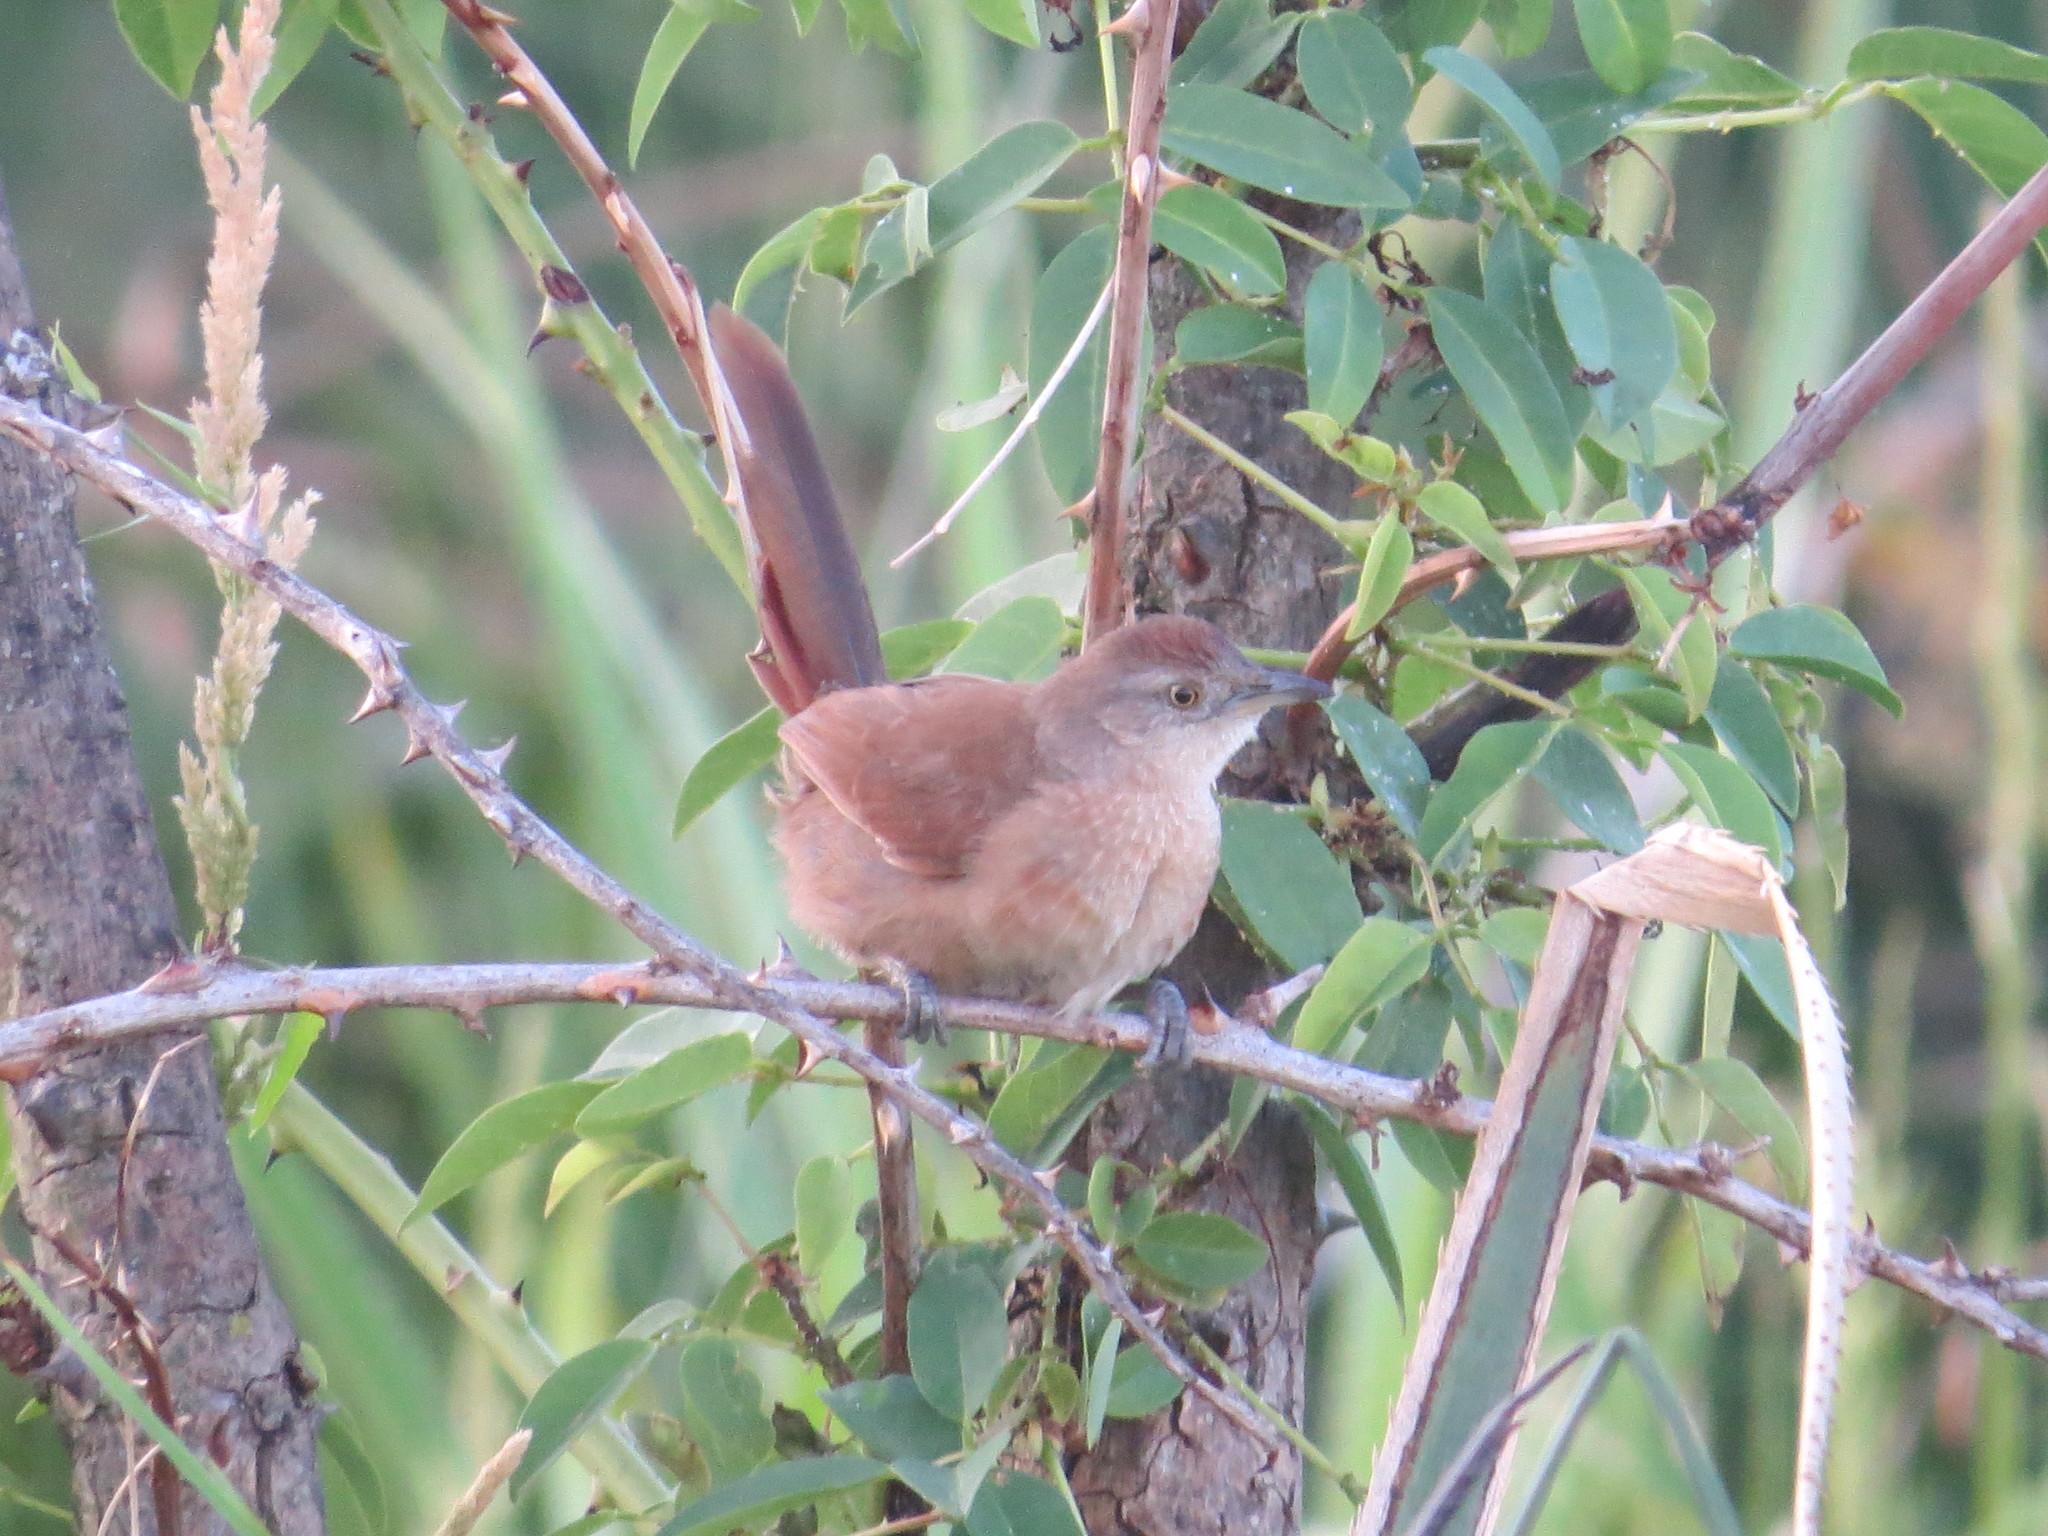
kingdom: Animalia
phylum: Chordata
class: Aves
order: Passeriformes
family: Furnariidae
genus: Phacellodomus
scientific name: Phacellodomus striaticollis
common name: Freckle-breasted thornbird
